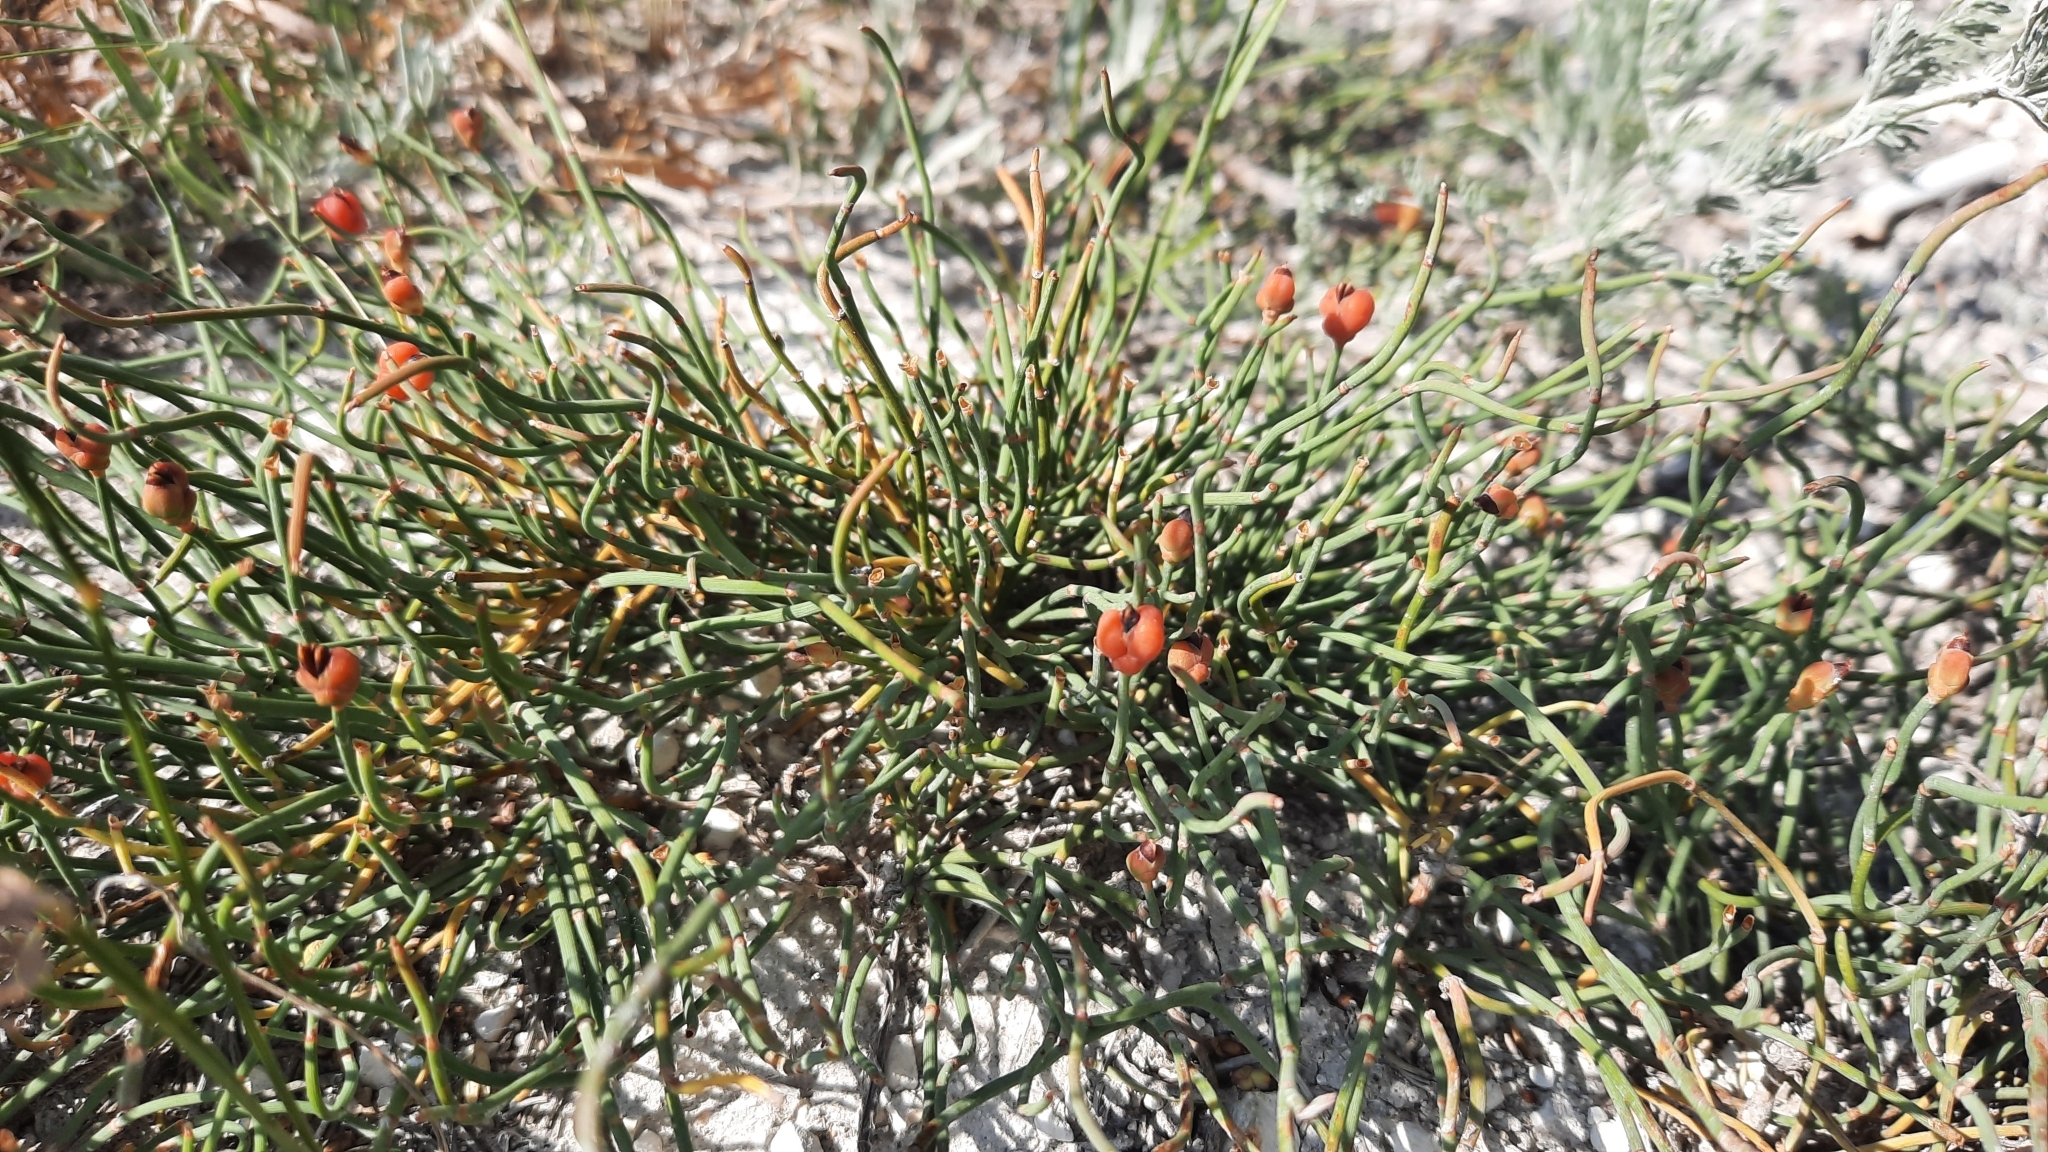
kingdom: Plantae
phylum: Tracheophyta
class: Gnetopsida
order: Ephedrales
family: Ephedraceae
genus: Ephedra
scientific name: Ephedra distachya
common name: Sea grape
